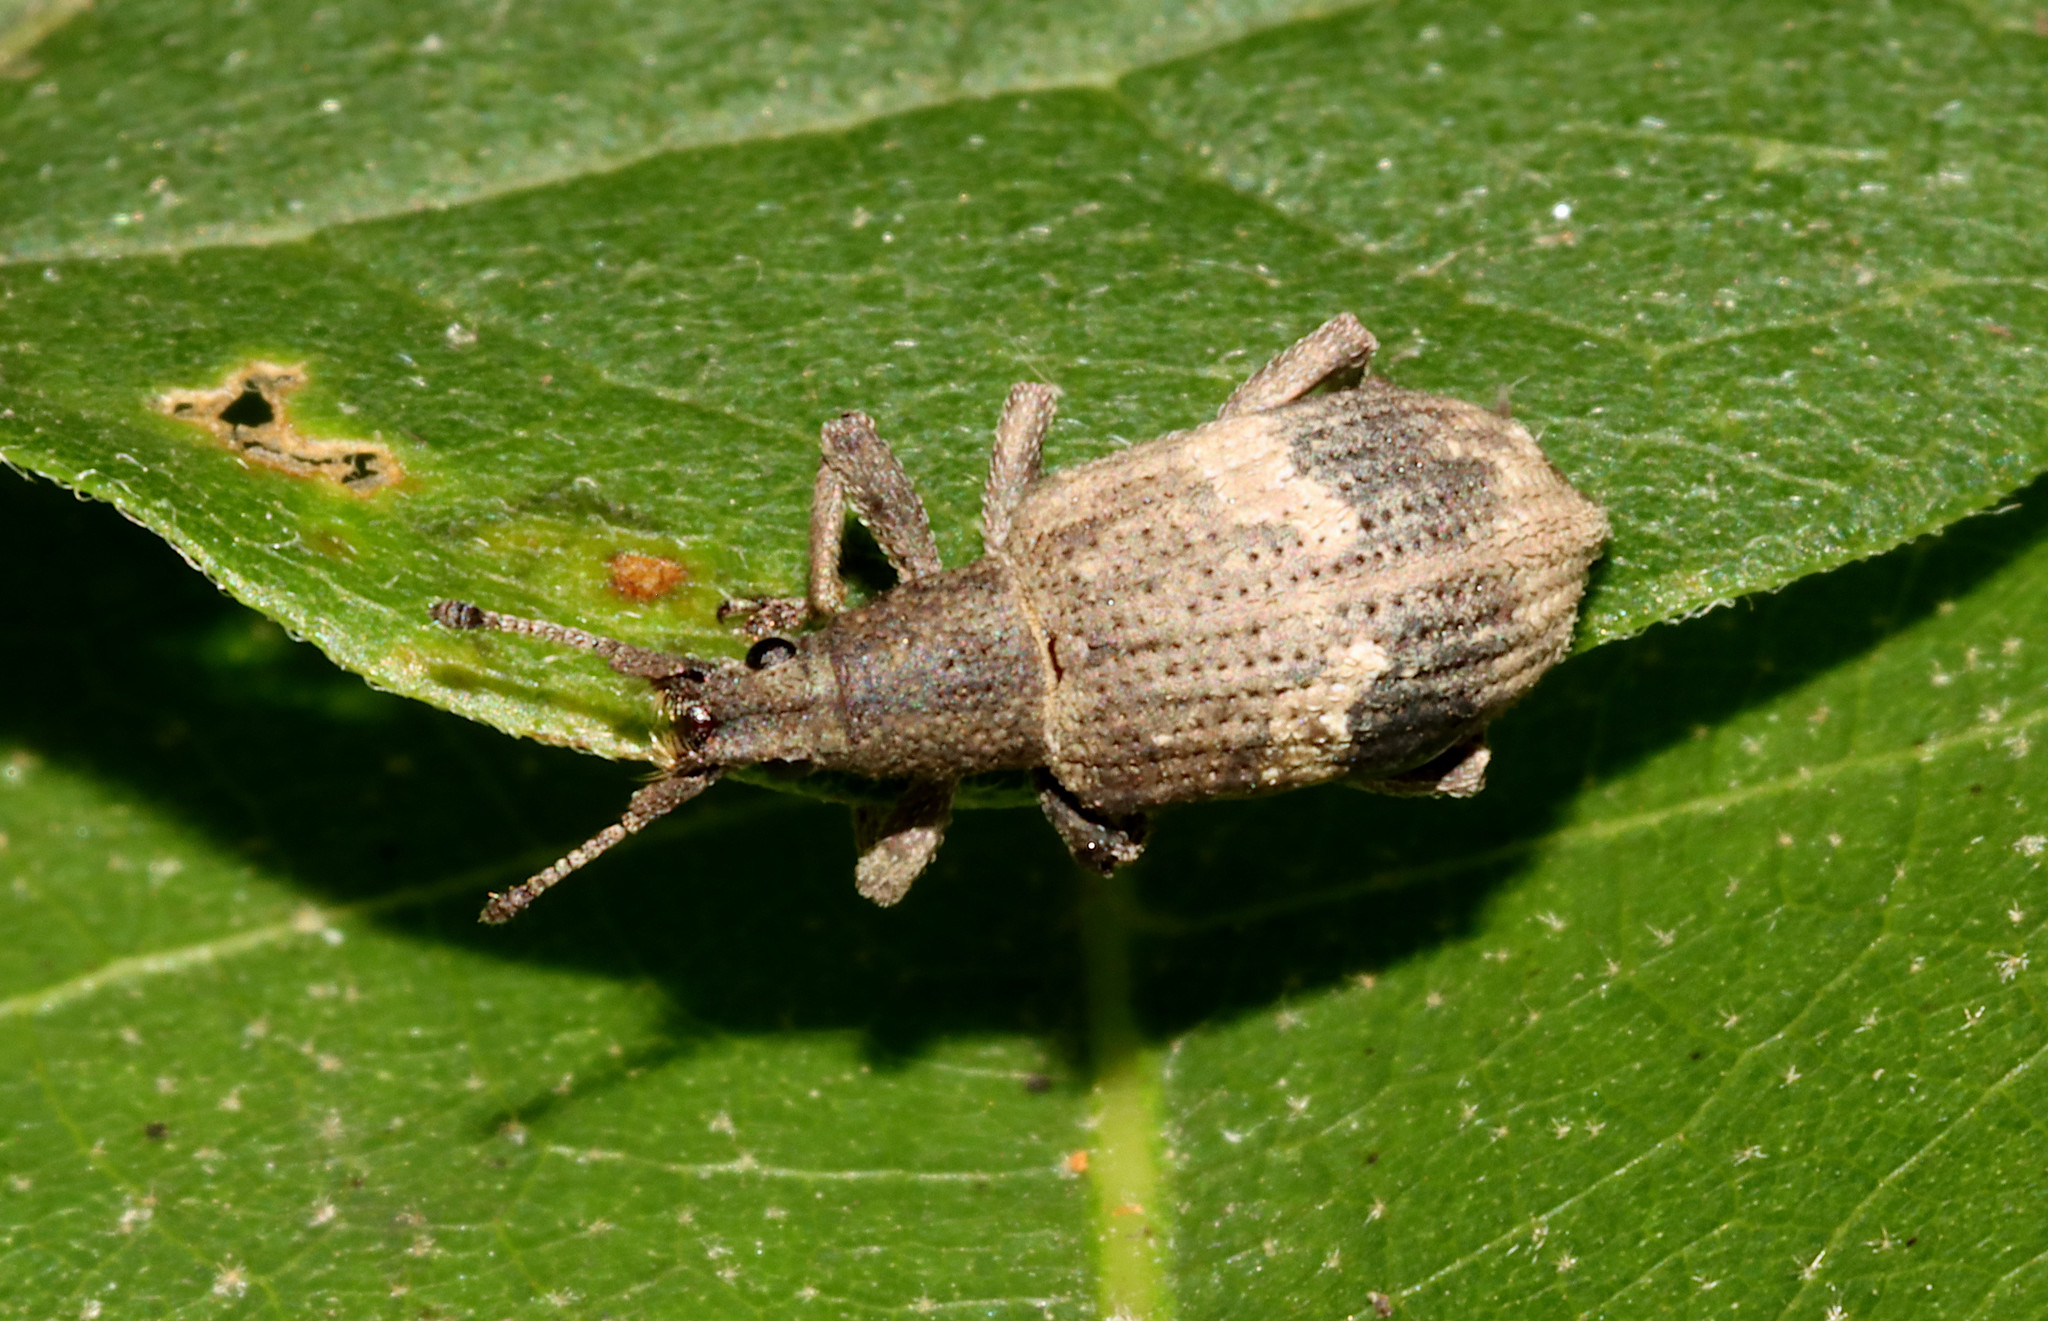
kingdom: Animalia
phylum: Arthropoda
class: Insecta
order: Coleoptera
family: Curculionidae
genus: Brachystylus
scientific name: Brachystylus
